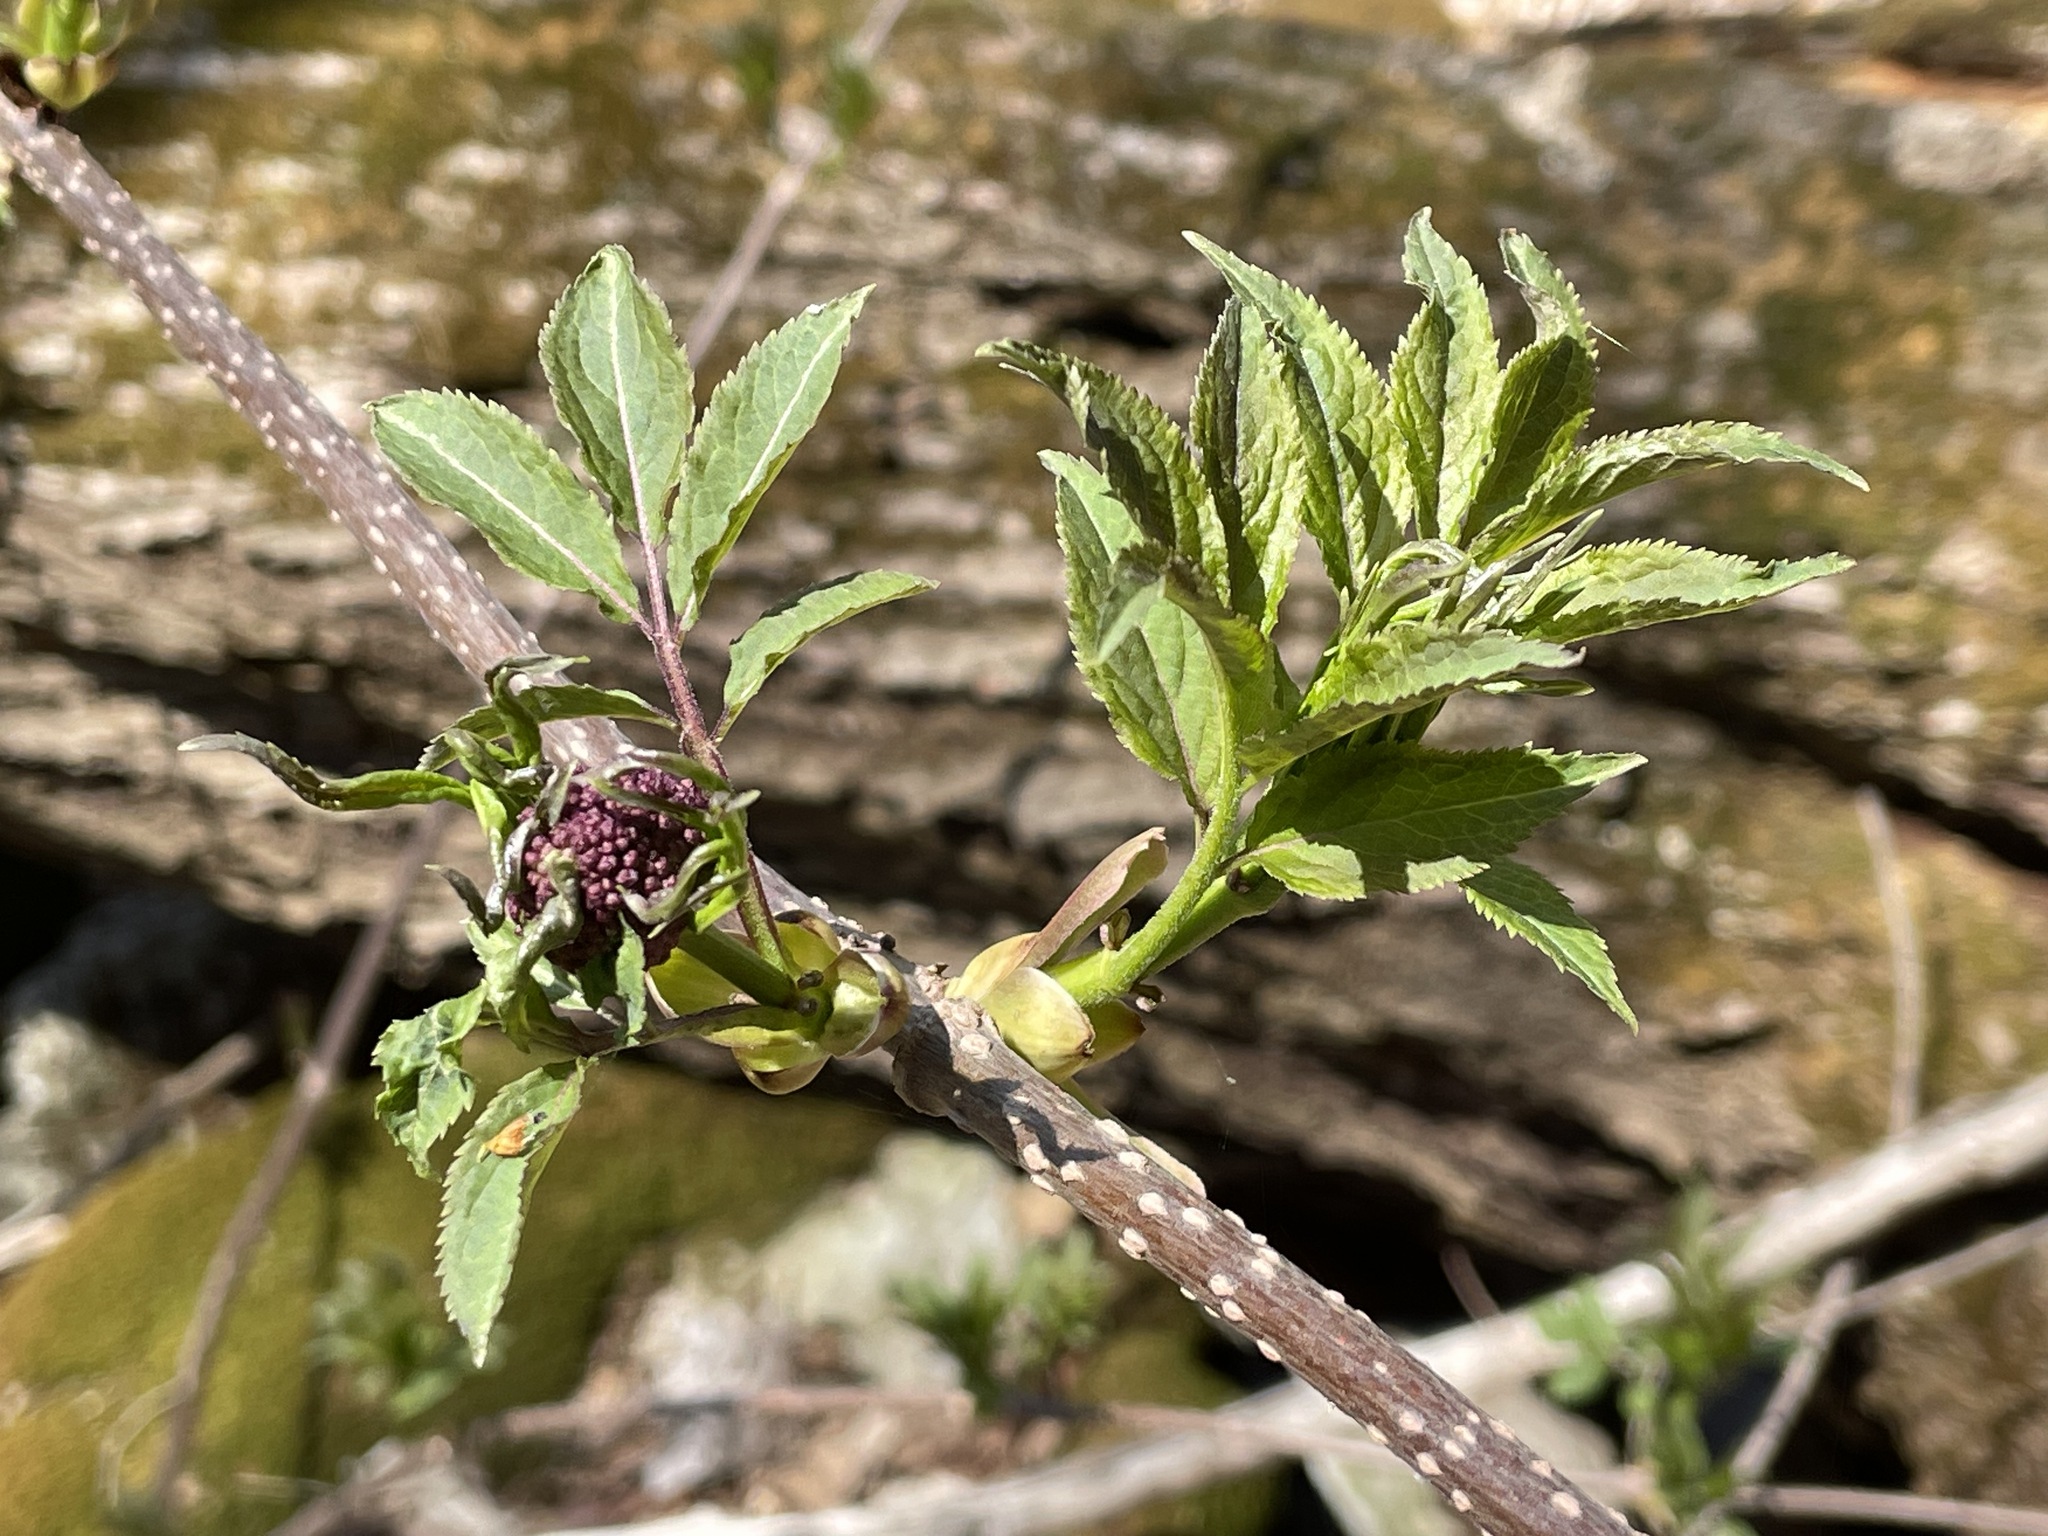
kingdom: Plantae
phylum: Tracheophyta
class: Magnoliopsida
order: Dipsacales
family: Viburnaceae
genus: Sambucus
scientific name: Sambucus racemosa
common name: Red-berried elder
